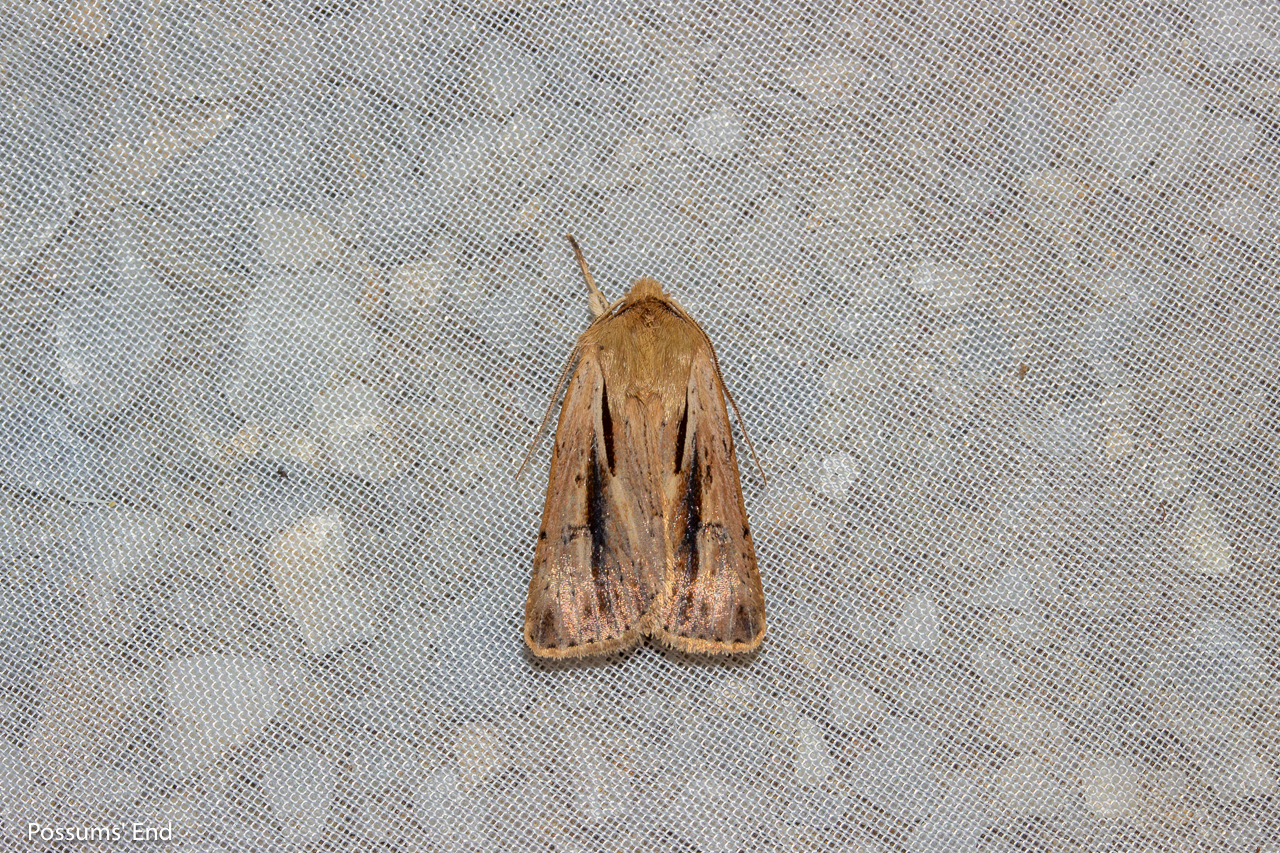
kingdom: Animalia
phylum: Arthropoda
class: Insecta
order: Lepidoptera
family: Noctuidae
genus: Ichneutica
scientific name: Ichneutica propria
